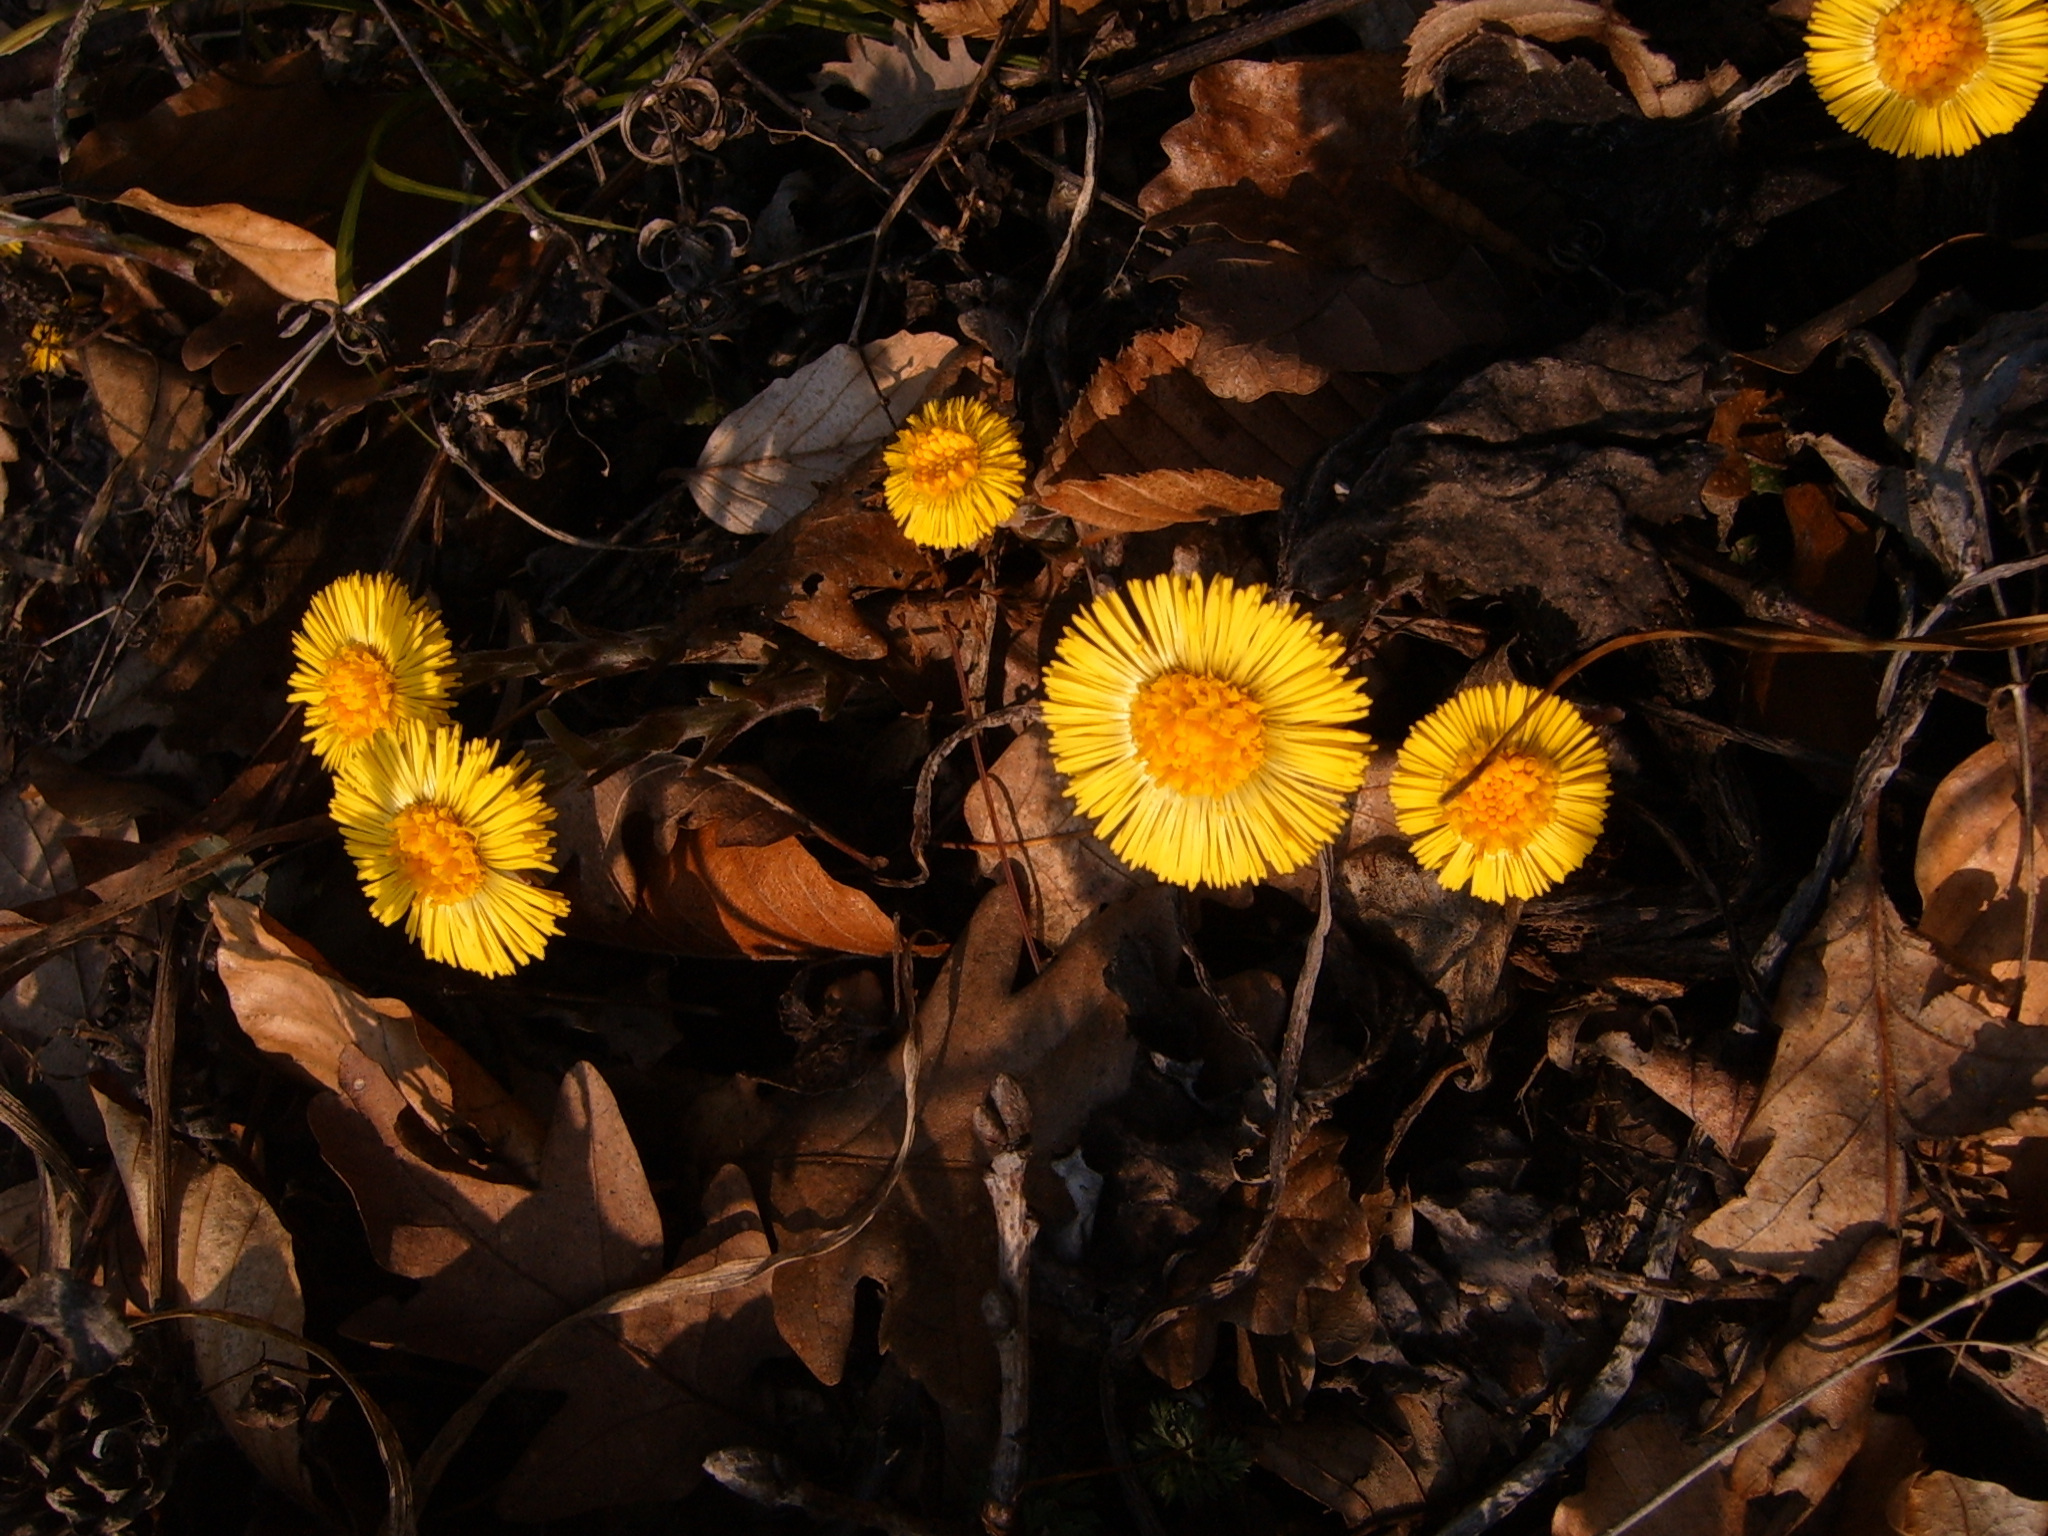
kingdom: Plantae
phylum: Tracheophyta
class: Magnoliopsida
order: Asterales
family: Asteraceae
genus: Tussilago
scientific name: Tussilago farfara
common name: Coltsfoot
